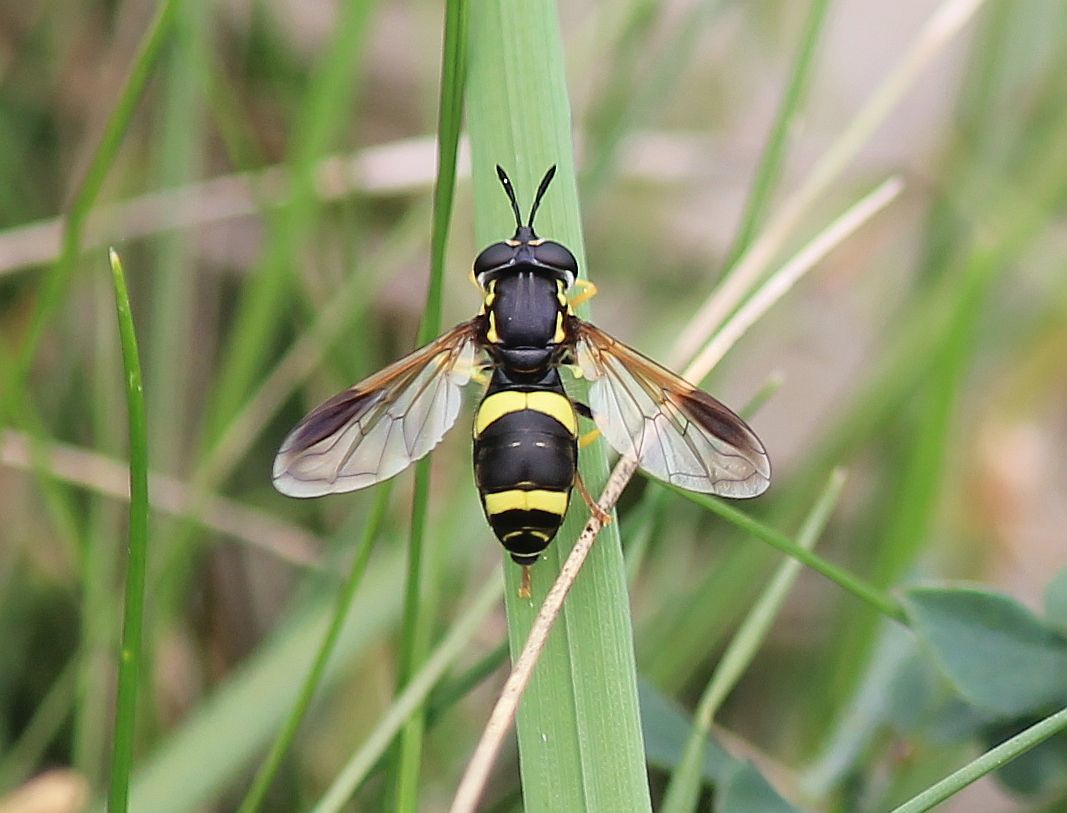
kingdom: Animalia
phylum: Arthropoda
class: Insecta
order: Diptera
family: Syrphidae
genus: Chrysotoxum
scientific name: Chrysotoxum bicincta
